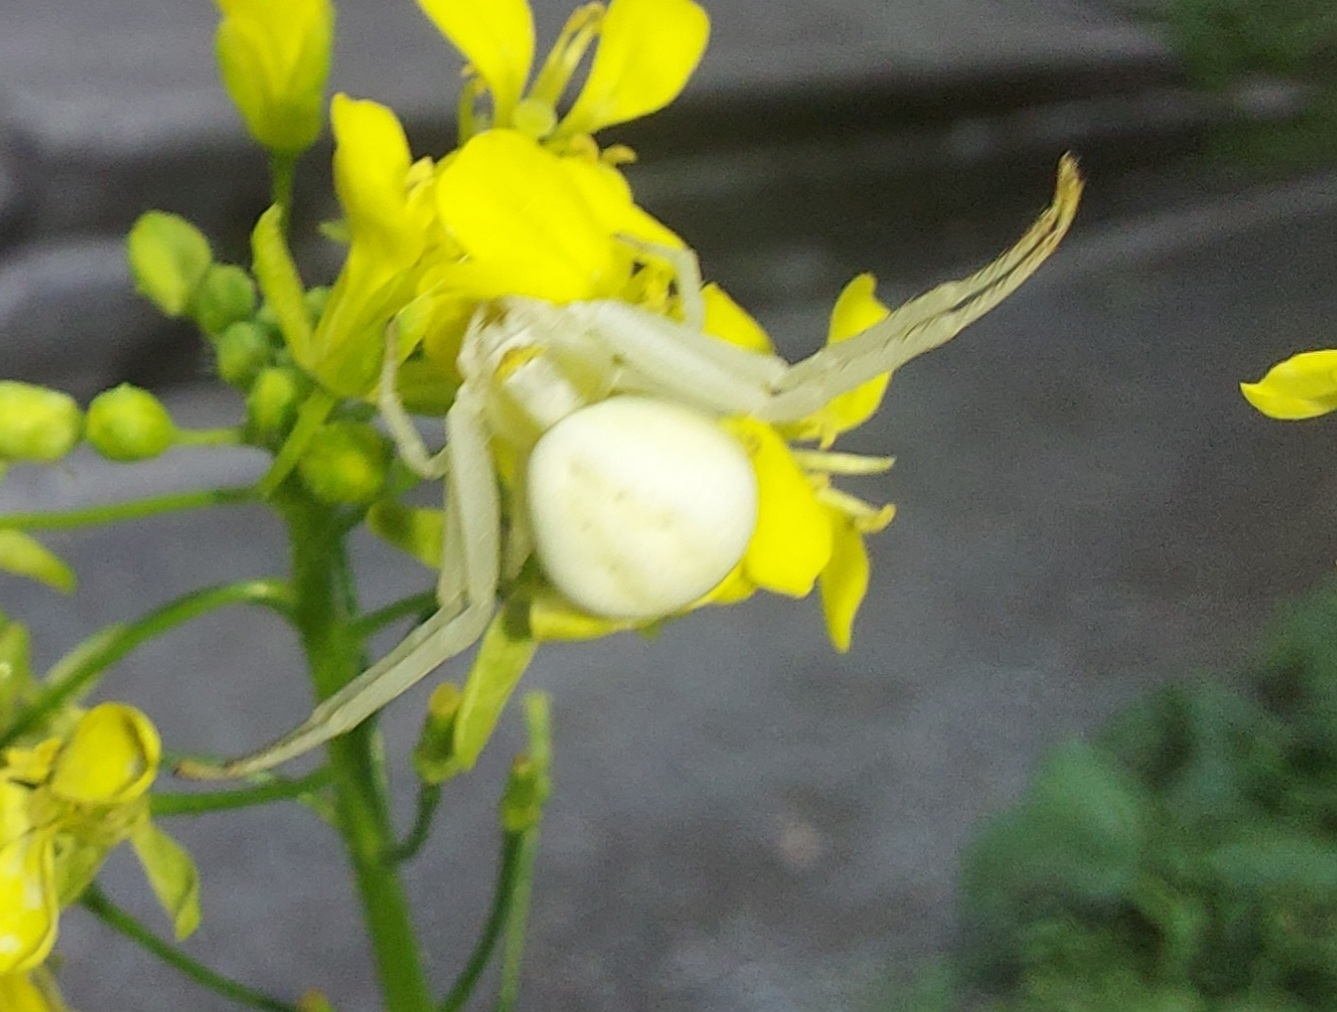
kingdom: Animalia
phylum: Arthropoda
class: Arachnida
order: Araneae
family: Thomisidae
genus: Misumena
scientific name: Misumena vatia
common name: Goldenrod crab spider
